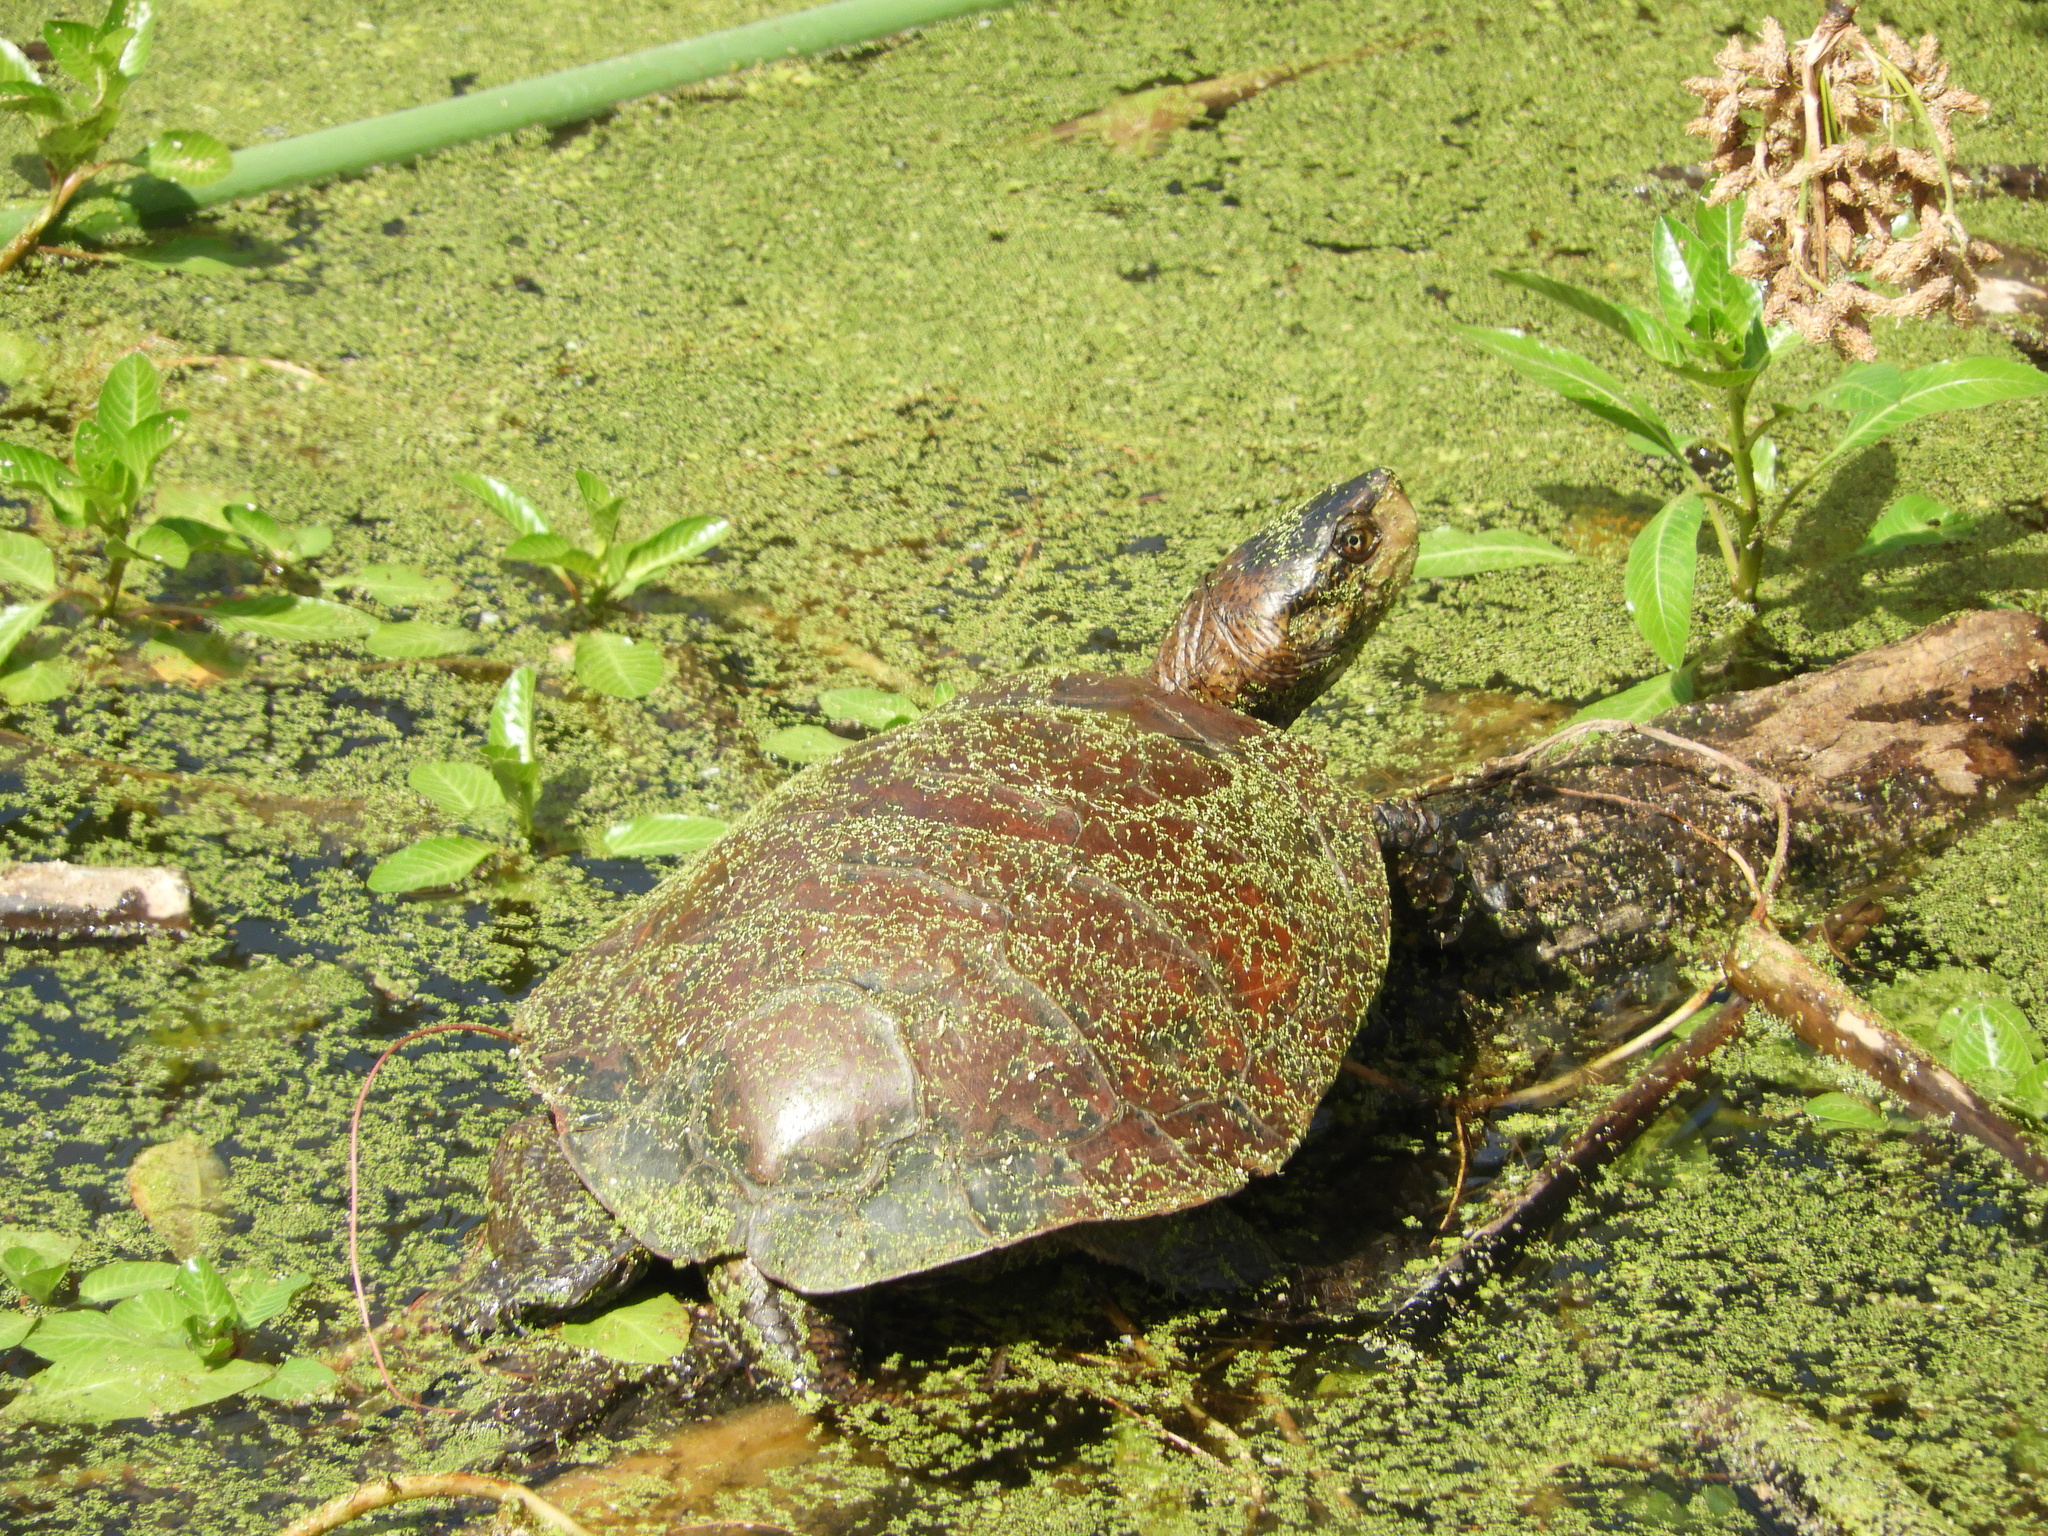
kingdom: Animalia
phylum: Chordata
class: Testudines
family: Emydidae
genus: Actinemys
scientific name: Actinemys marmorata
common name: Western pond turtle
